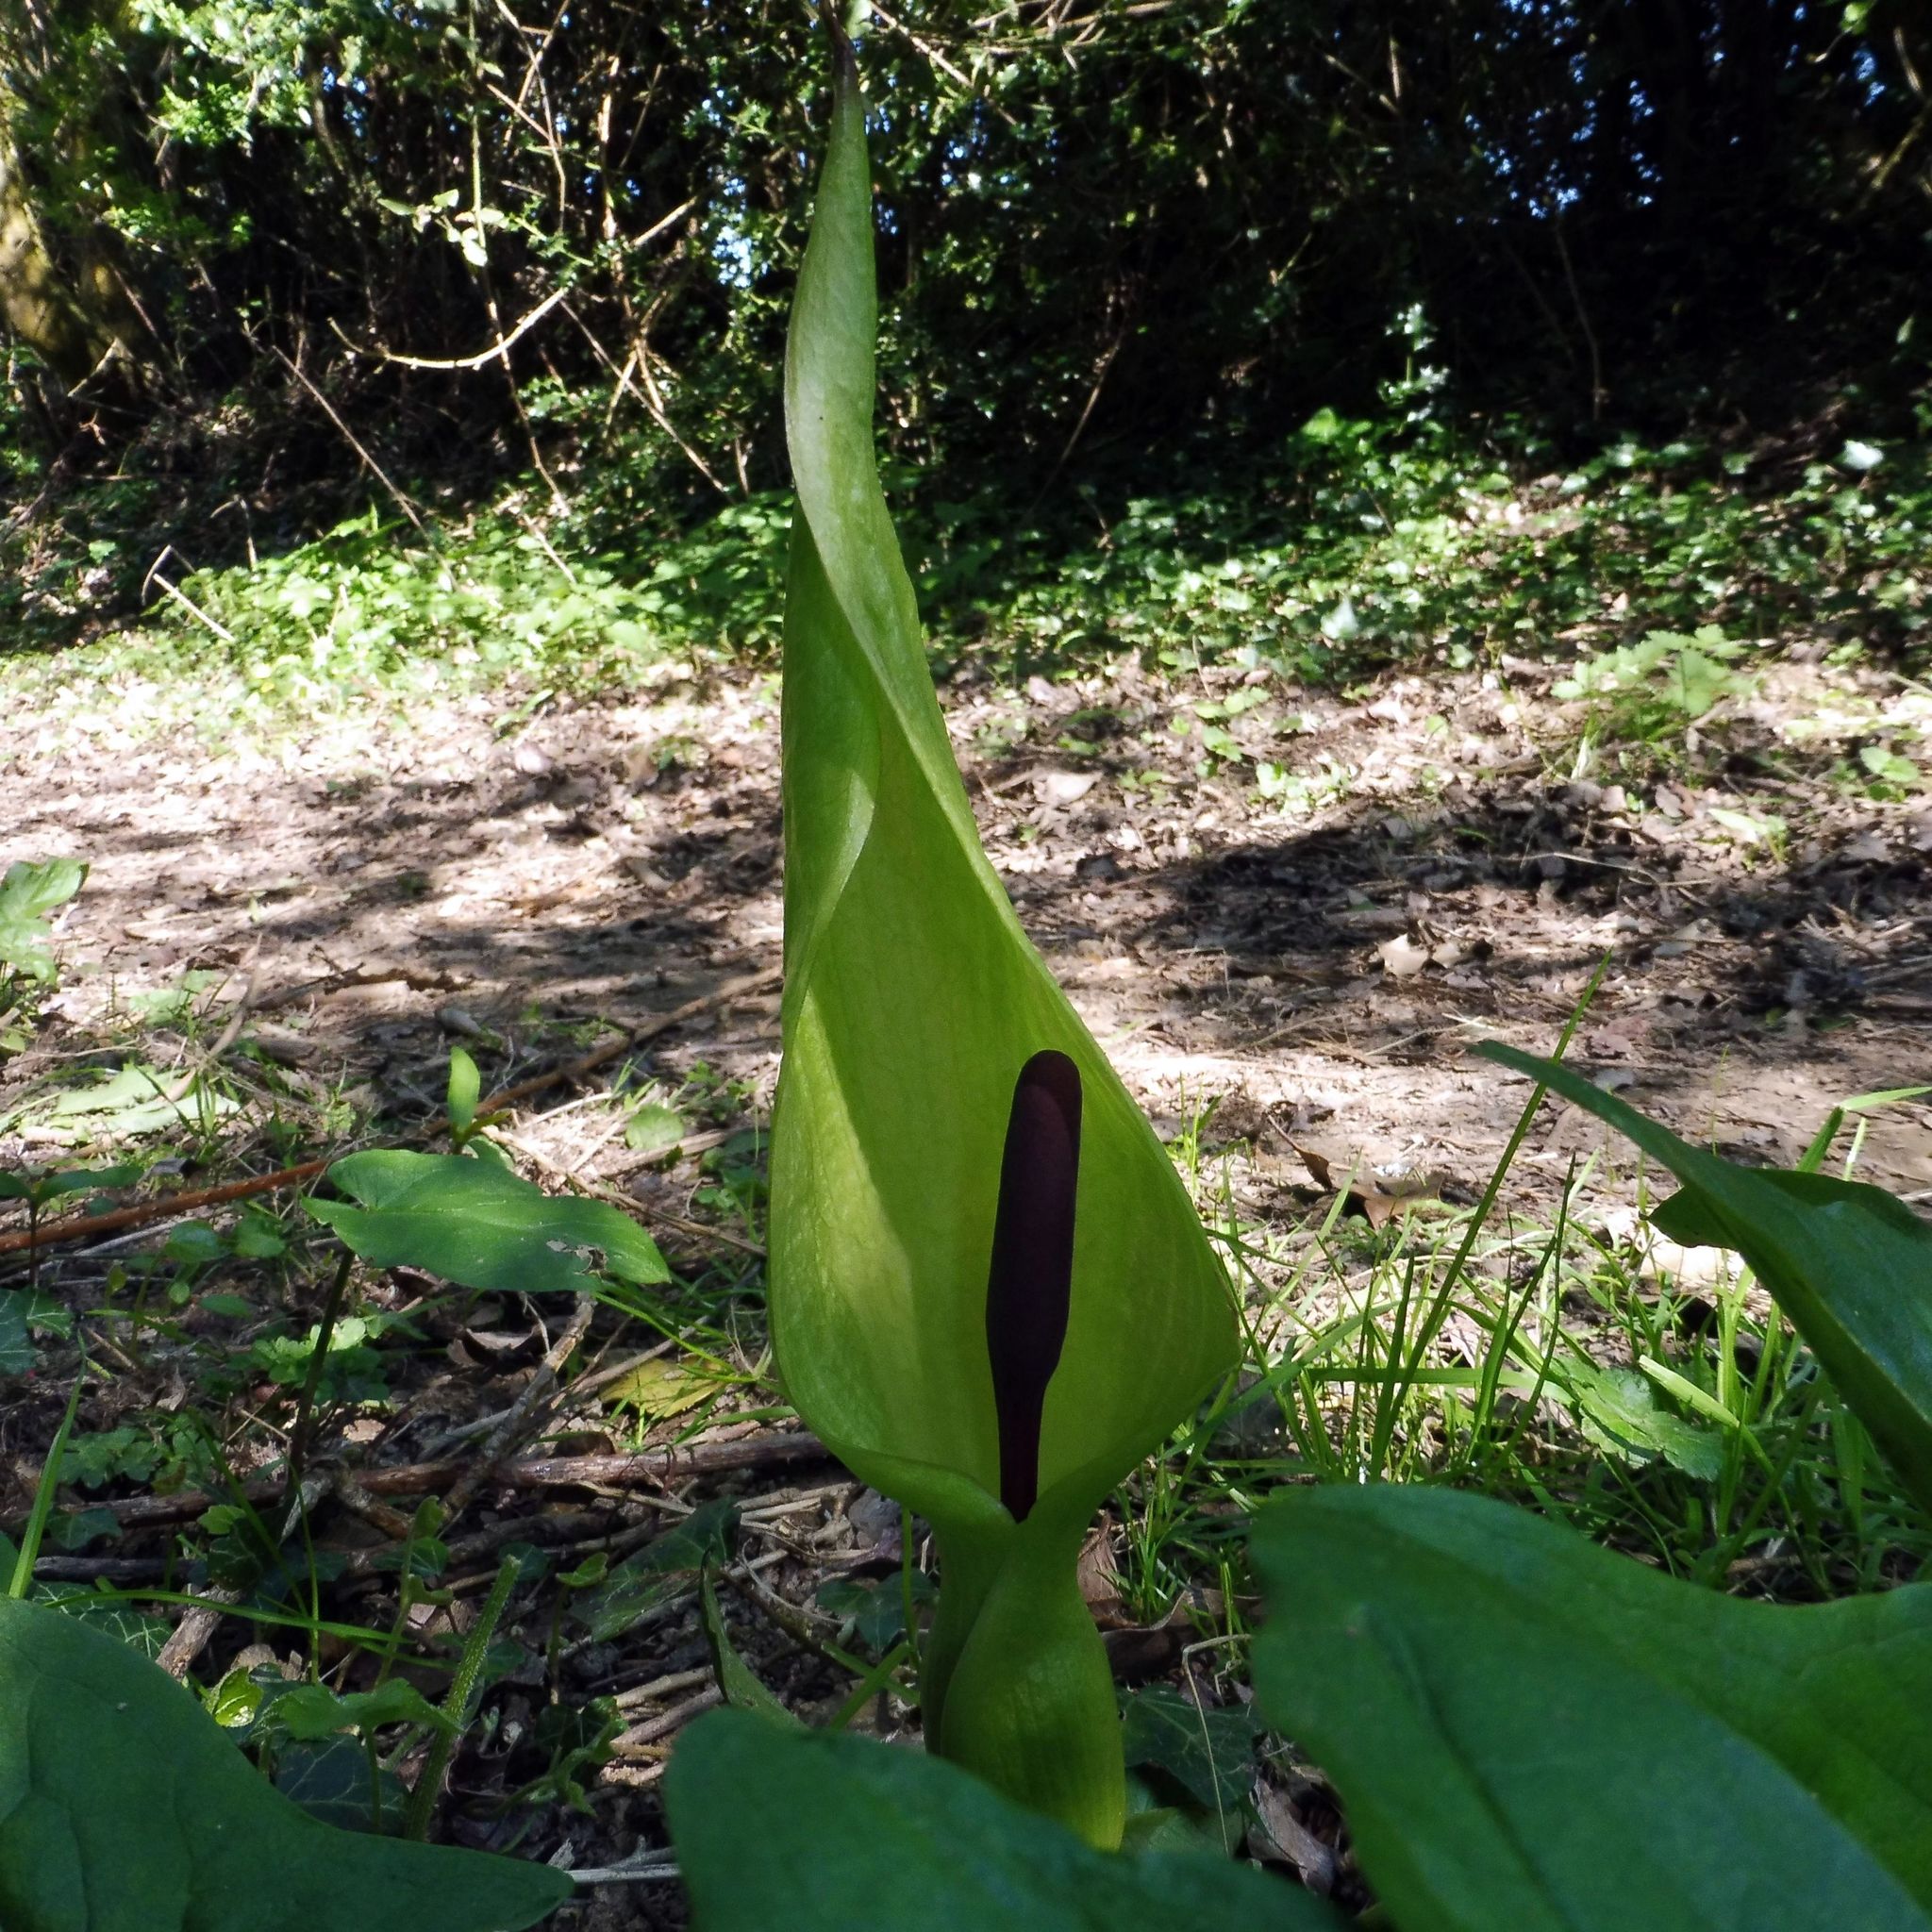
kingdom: Plantae
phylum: Tracheophyta
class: Liliopsida
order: Alismatales
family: Araceae
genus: Arum
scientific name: Arum maculatum
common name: Lords-and-ladies
